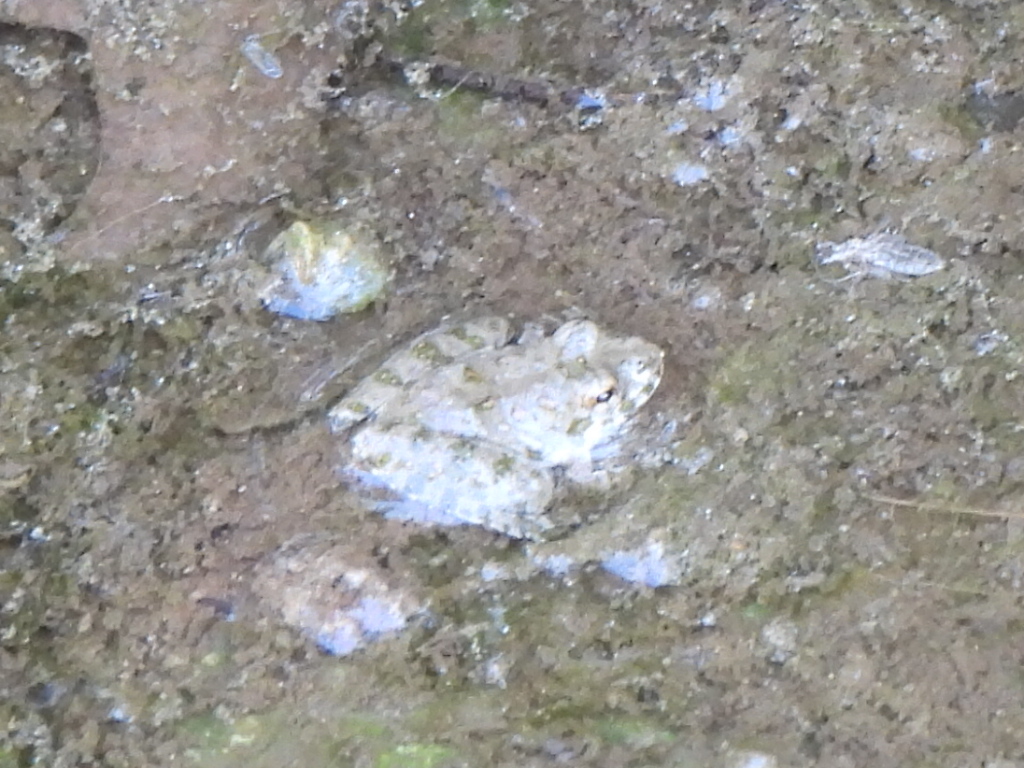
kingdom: Animalia
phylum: Chordata
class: Amphibia
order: Anura
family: Hylidae
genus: Acris
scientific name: Acris blanchardi
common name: Blanchard's cricket frog
